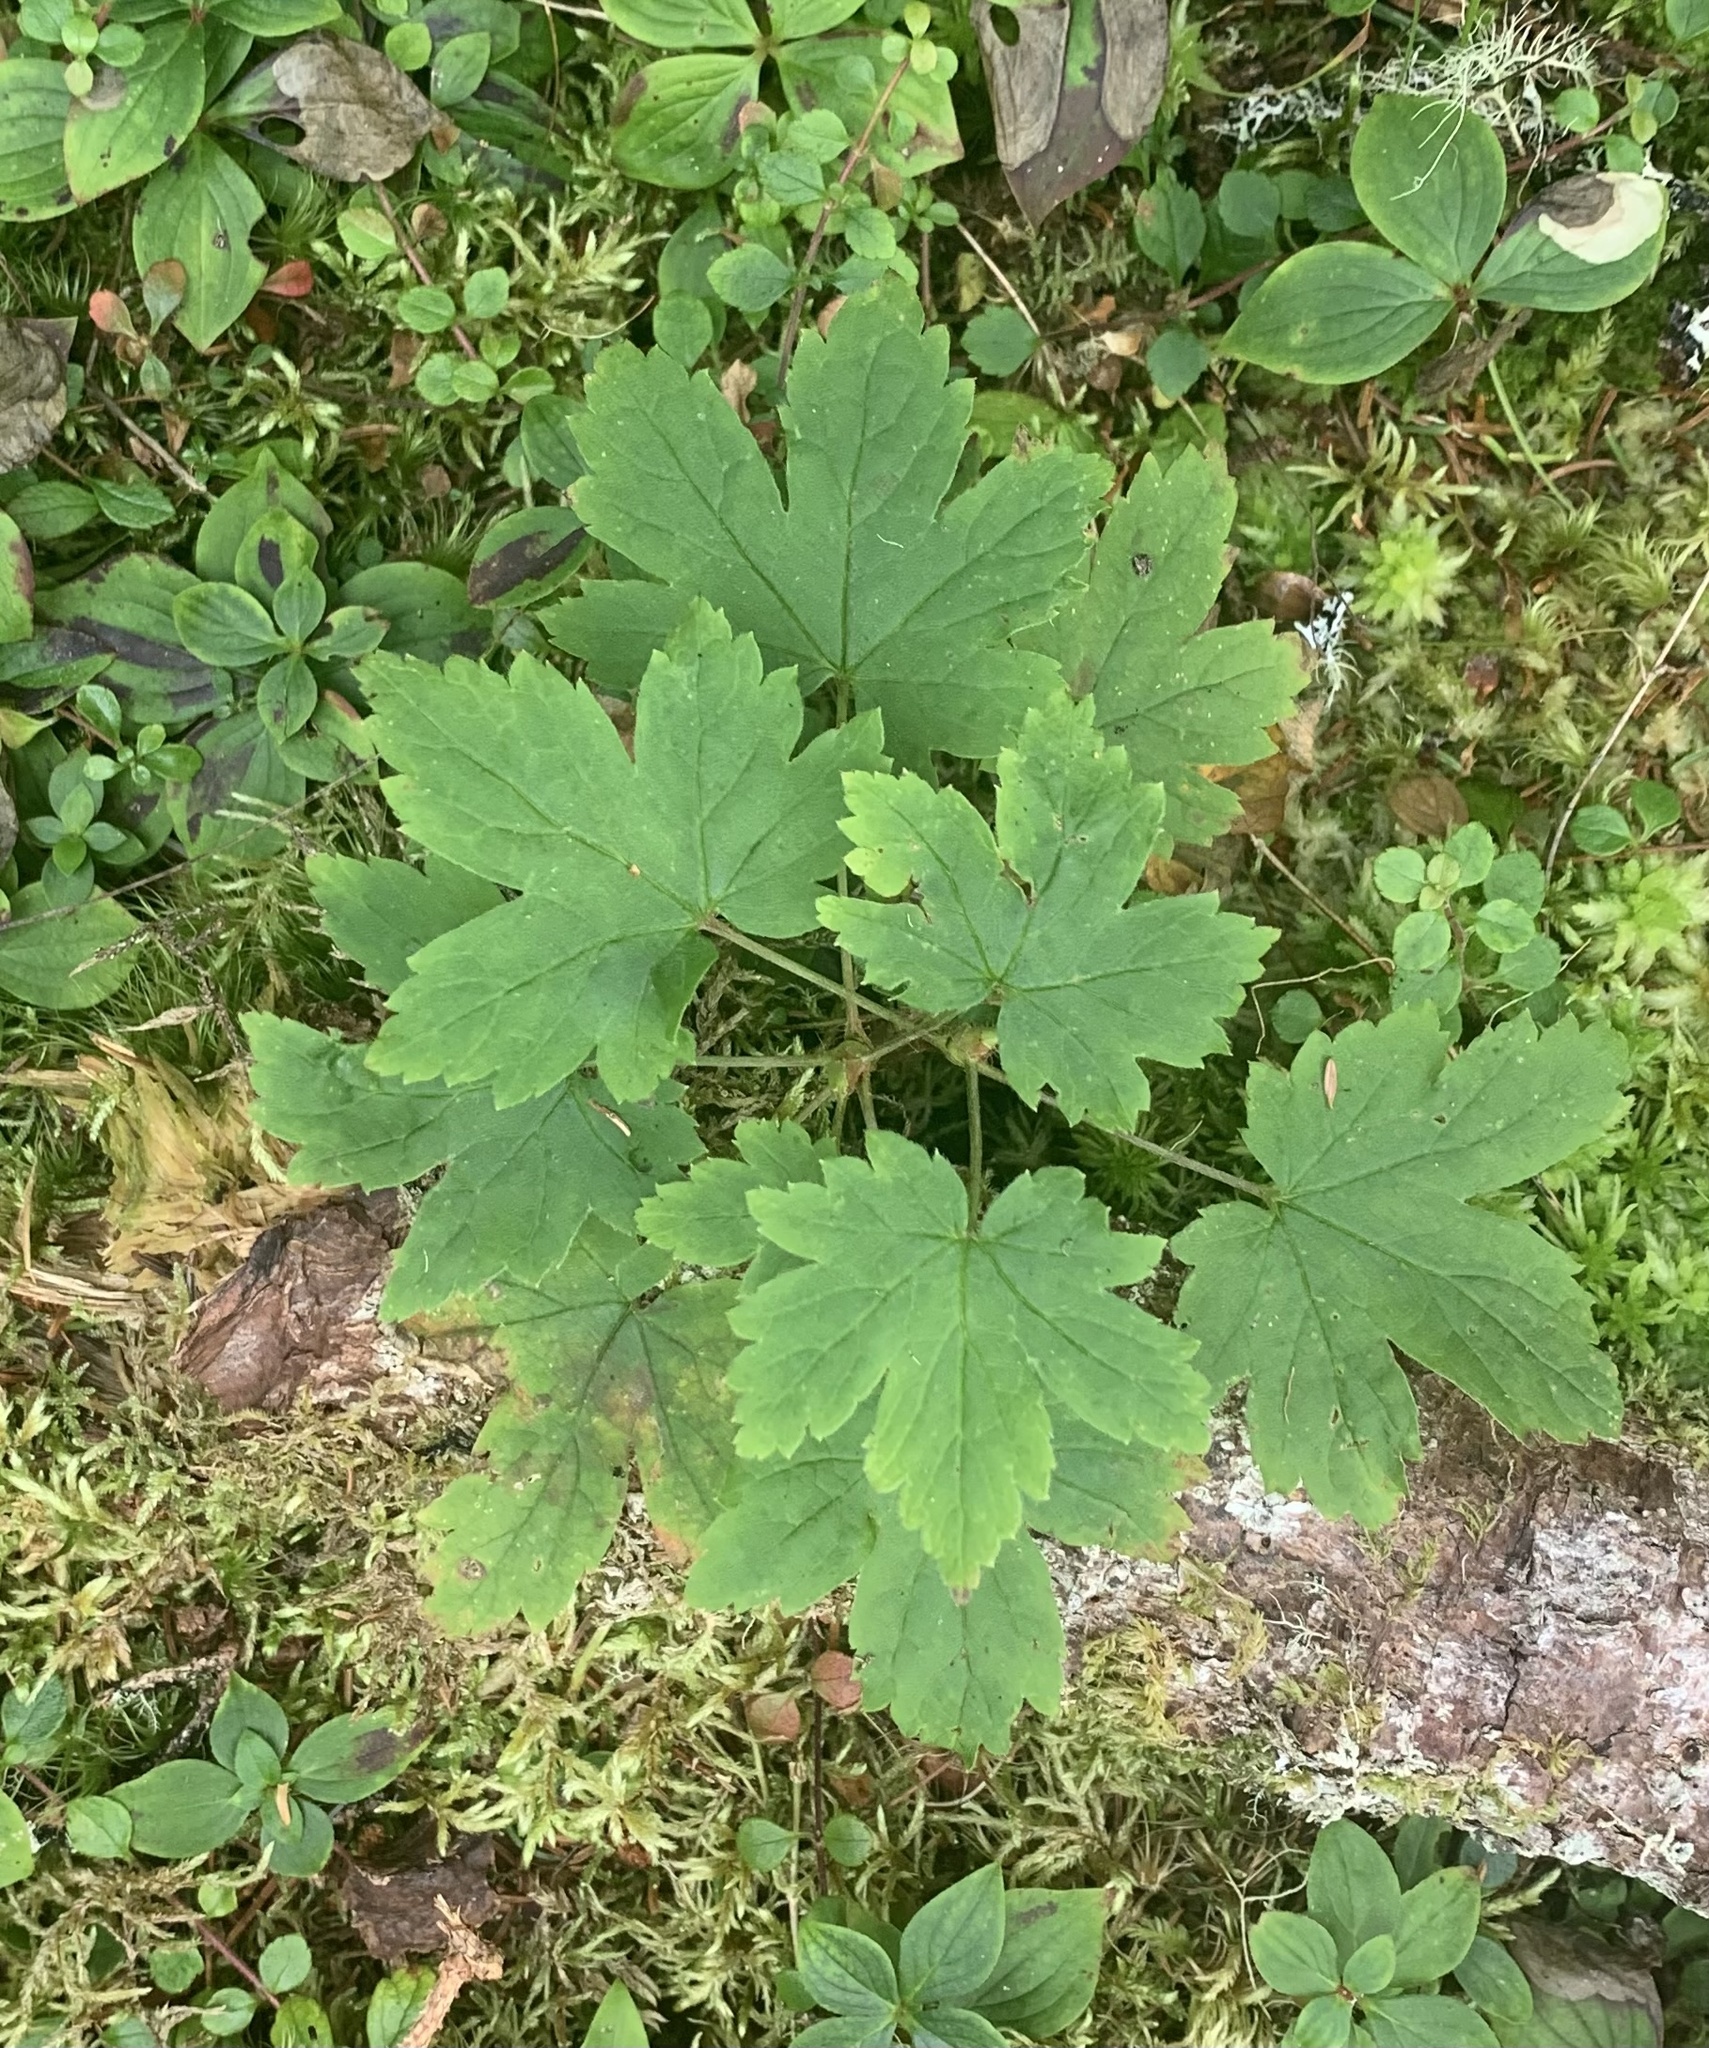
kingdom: Plantae
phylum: Tracheophyta
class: Magnoliopsida
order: Saxifragales
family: Grossulariaceae
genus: Ribes
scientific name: Ribes glandulosum
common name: Skunk currant
